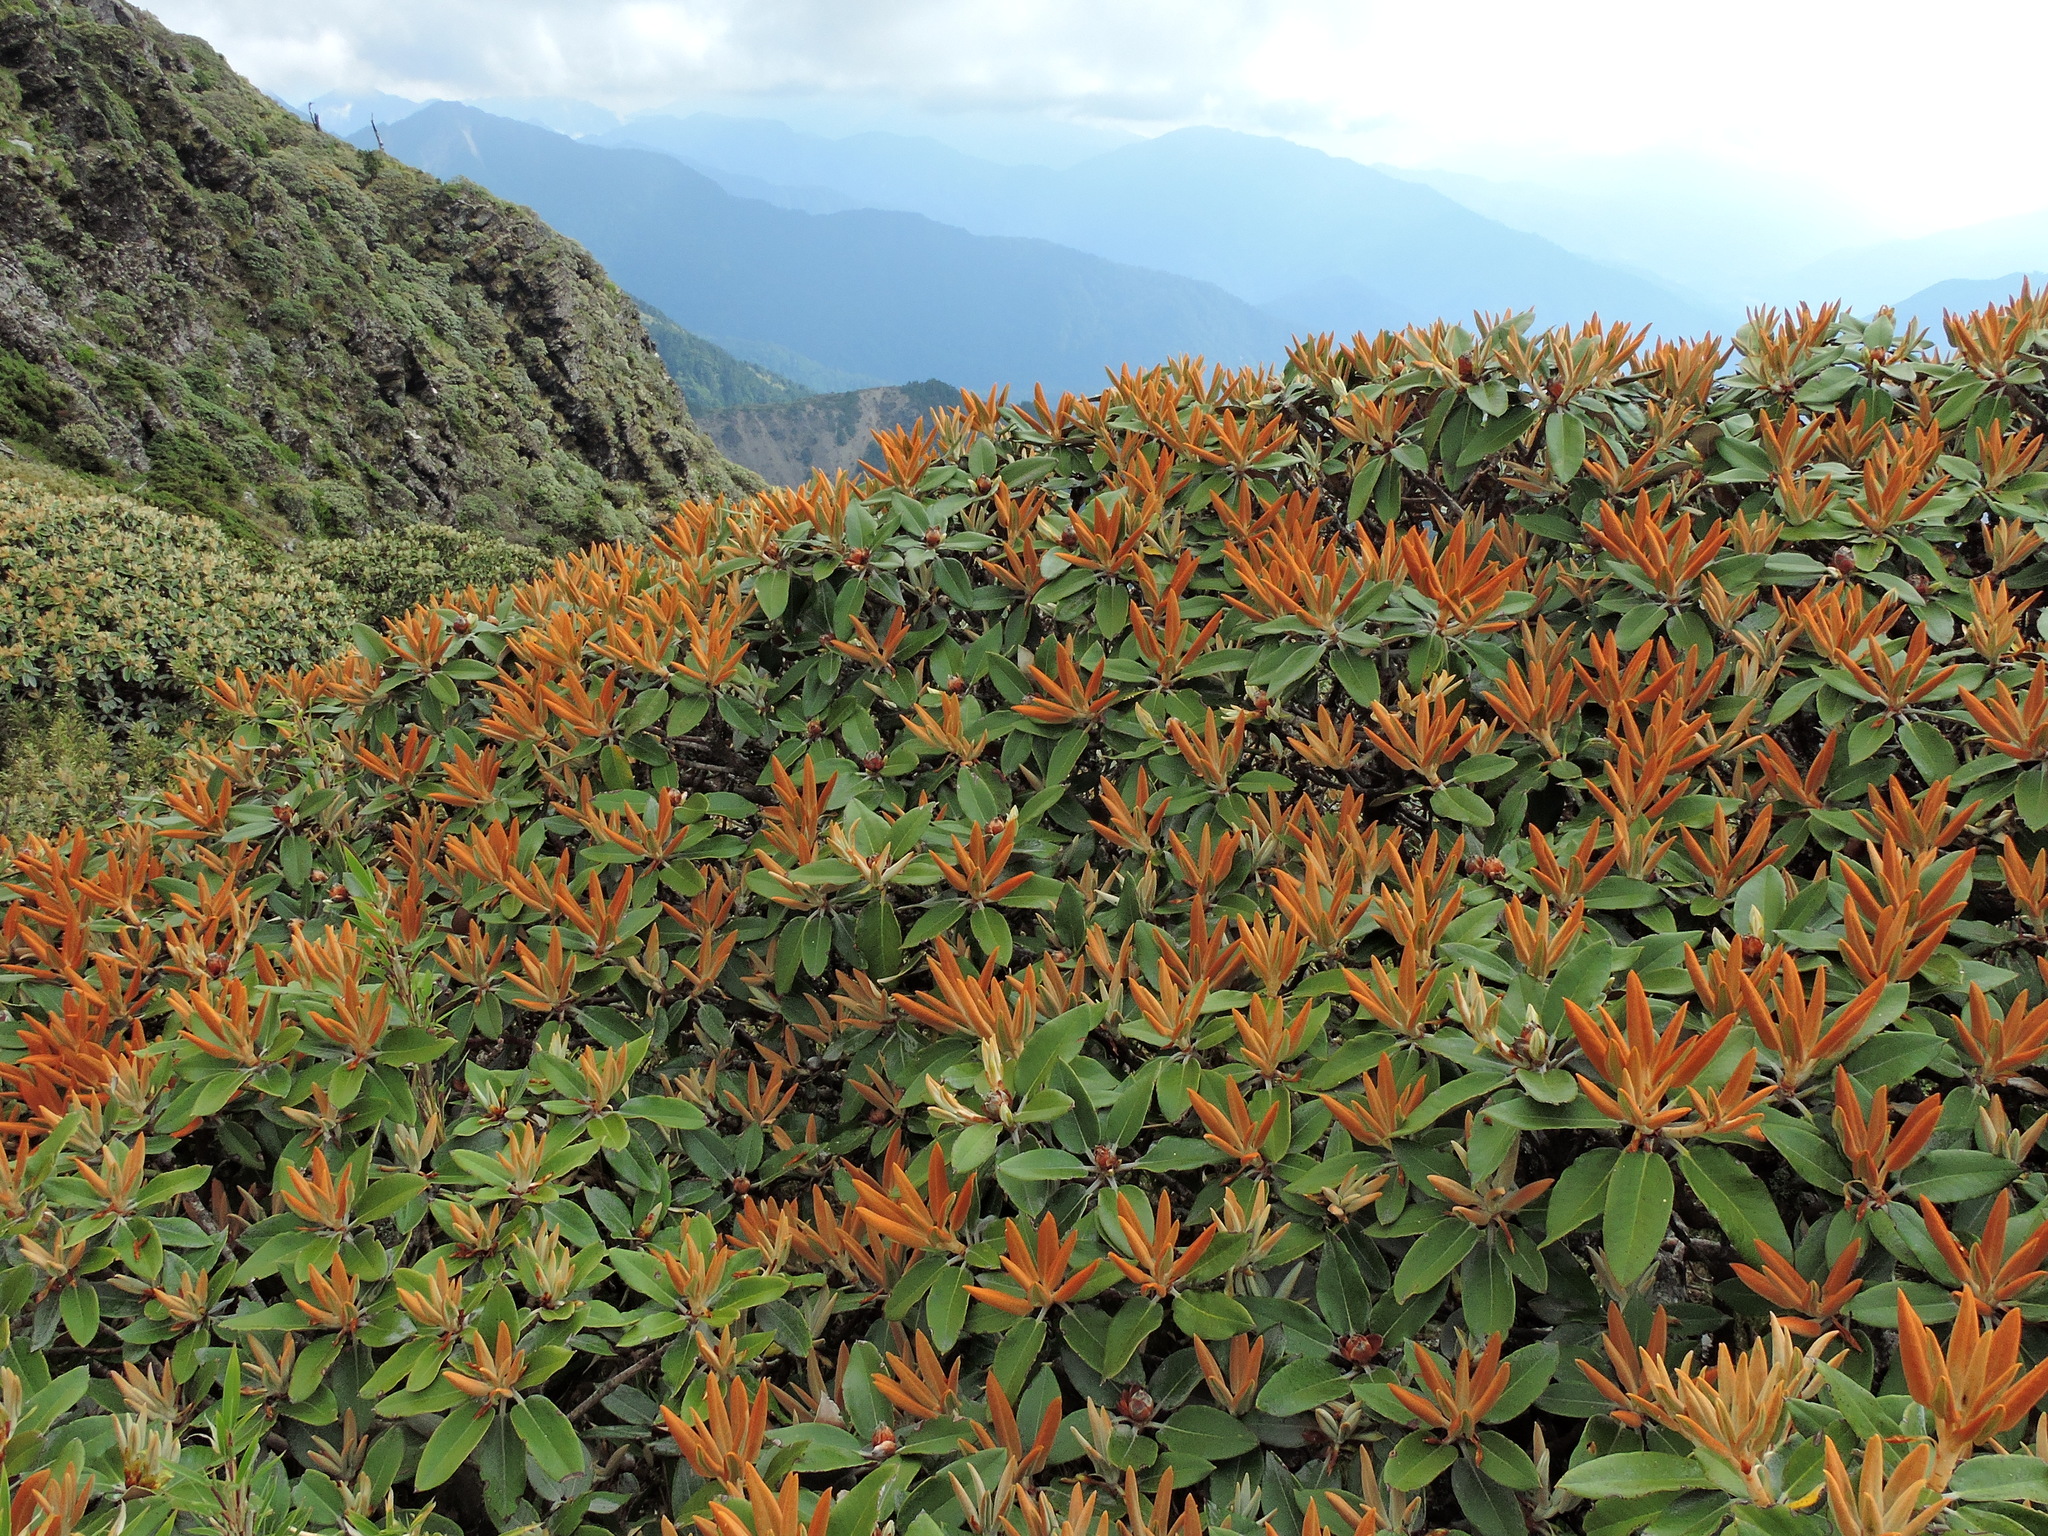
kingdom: Plantae
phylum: Tracheophyta
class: Magnoliopsida
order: Ericales
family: Ericaceae
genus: Rhododendron
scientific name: Rhododendron hyperythrum
